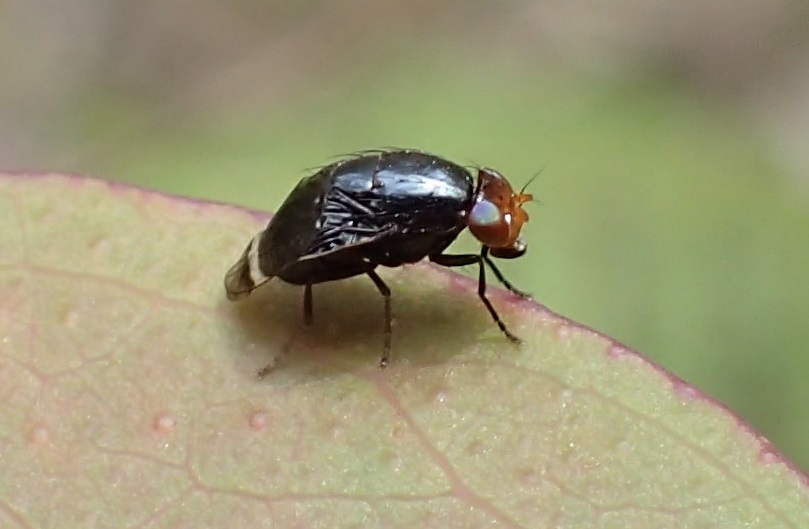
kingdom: Animalia
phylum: Arthropoda
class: Insecta
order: Diptera
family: Lauxaniidae
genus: Depressa
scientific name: Depressa atrata
